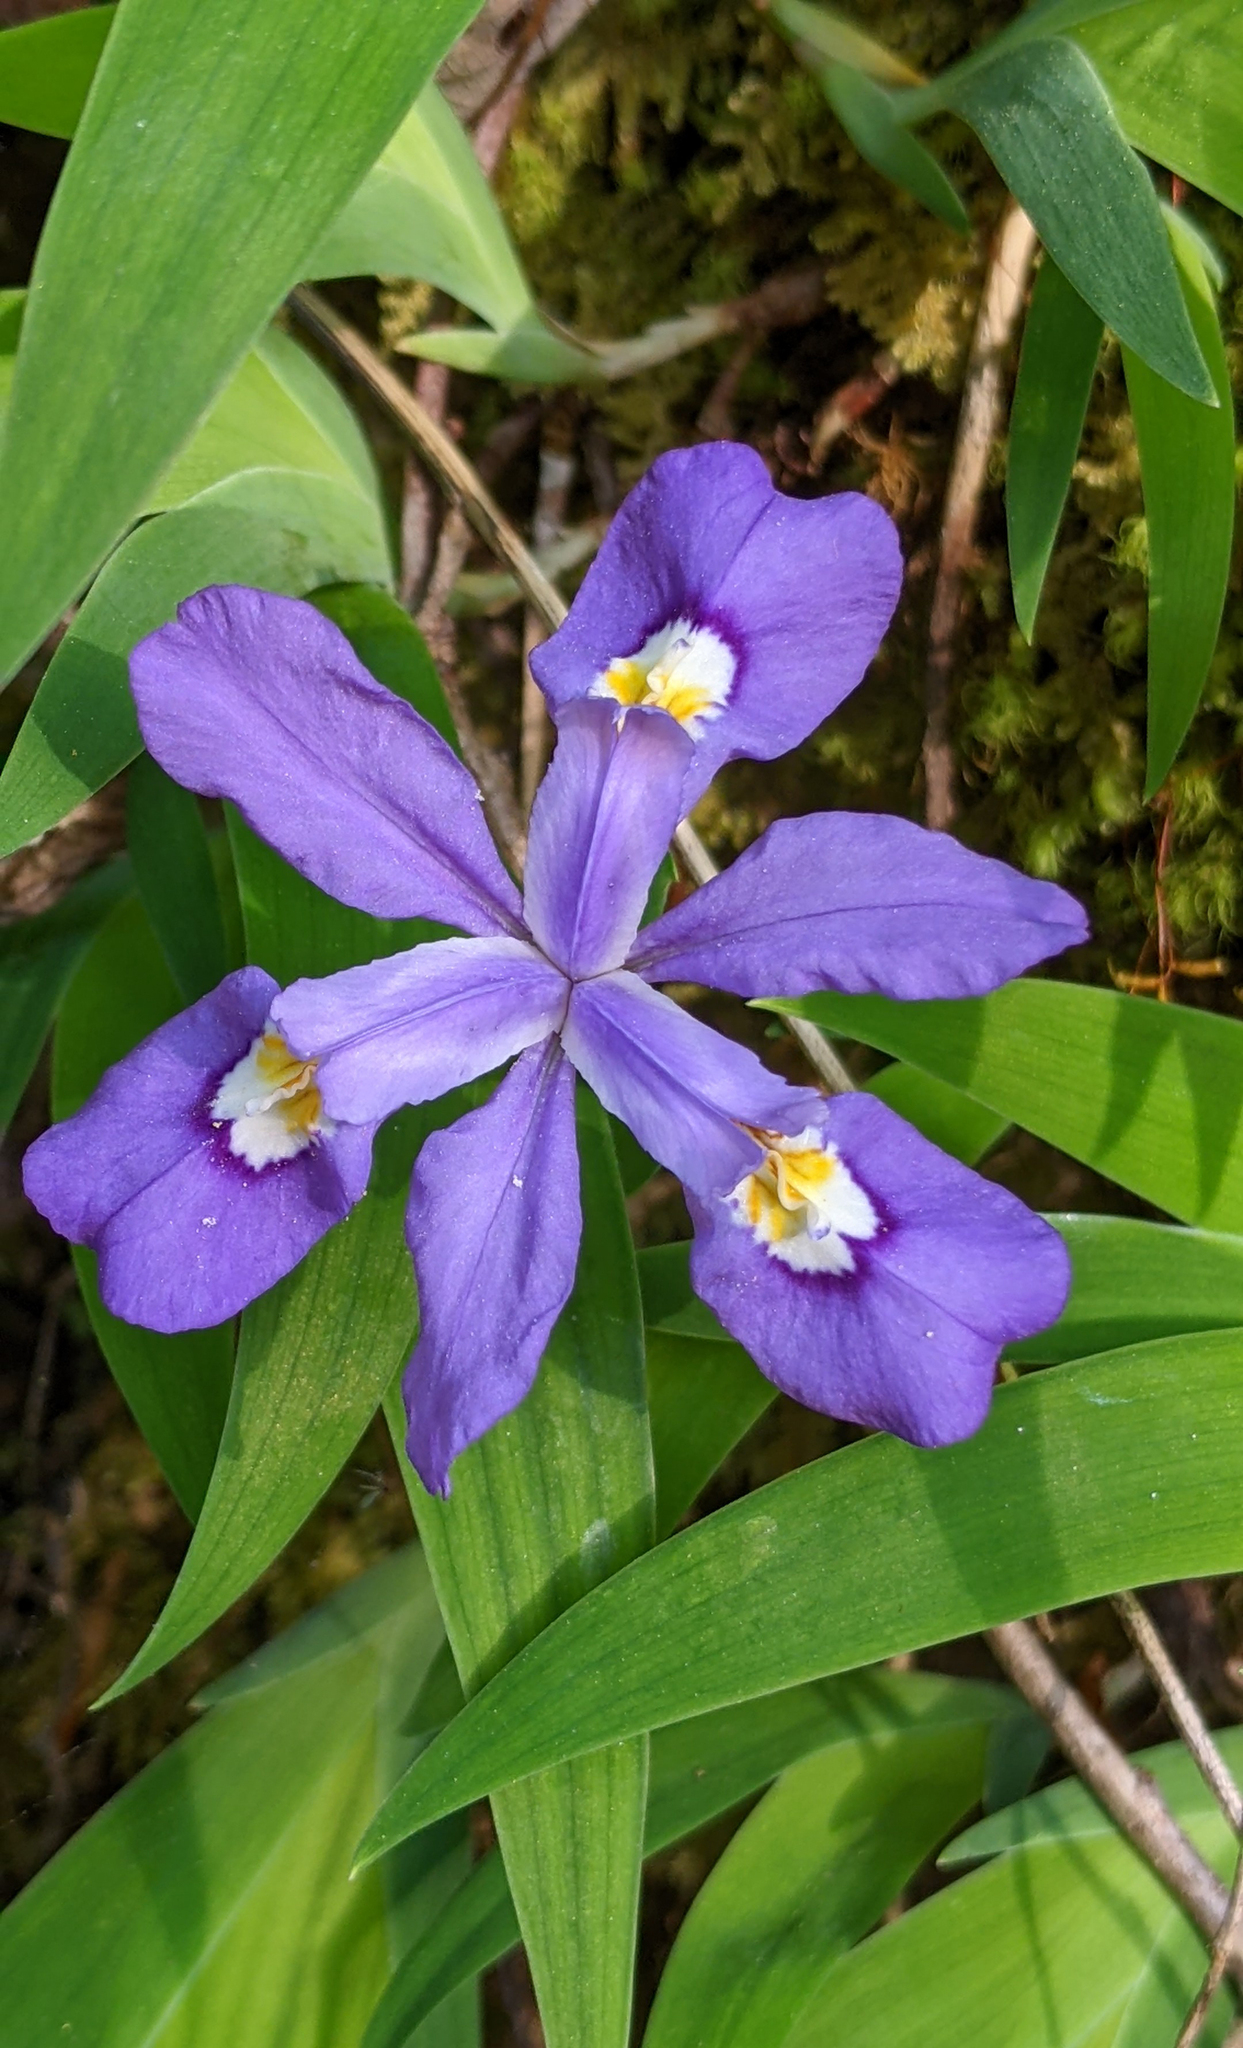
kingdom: Plantae
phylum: Tracheophyta
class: Liliopsida
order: Asparagales
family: Iridaceae
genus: Iris
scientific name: Iris cristata
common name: Crested iris
